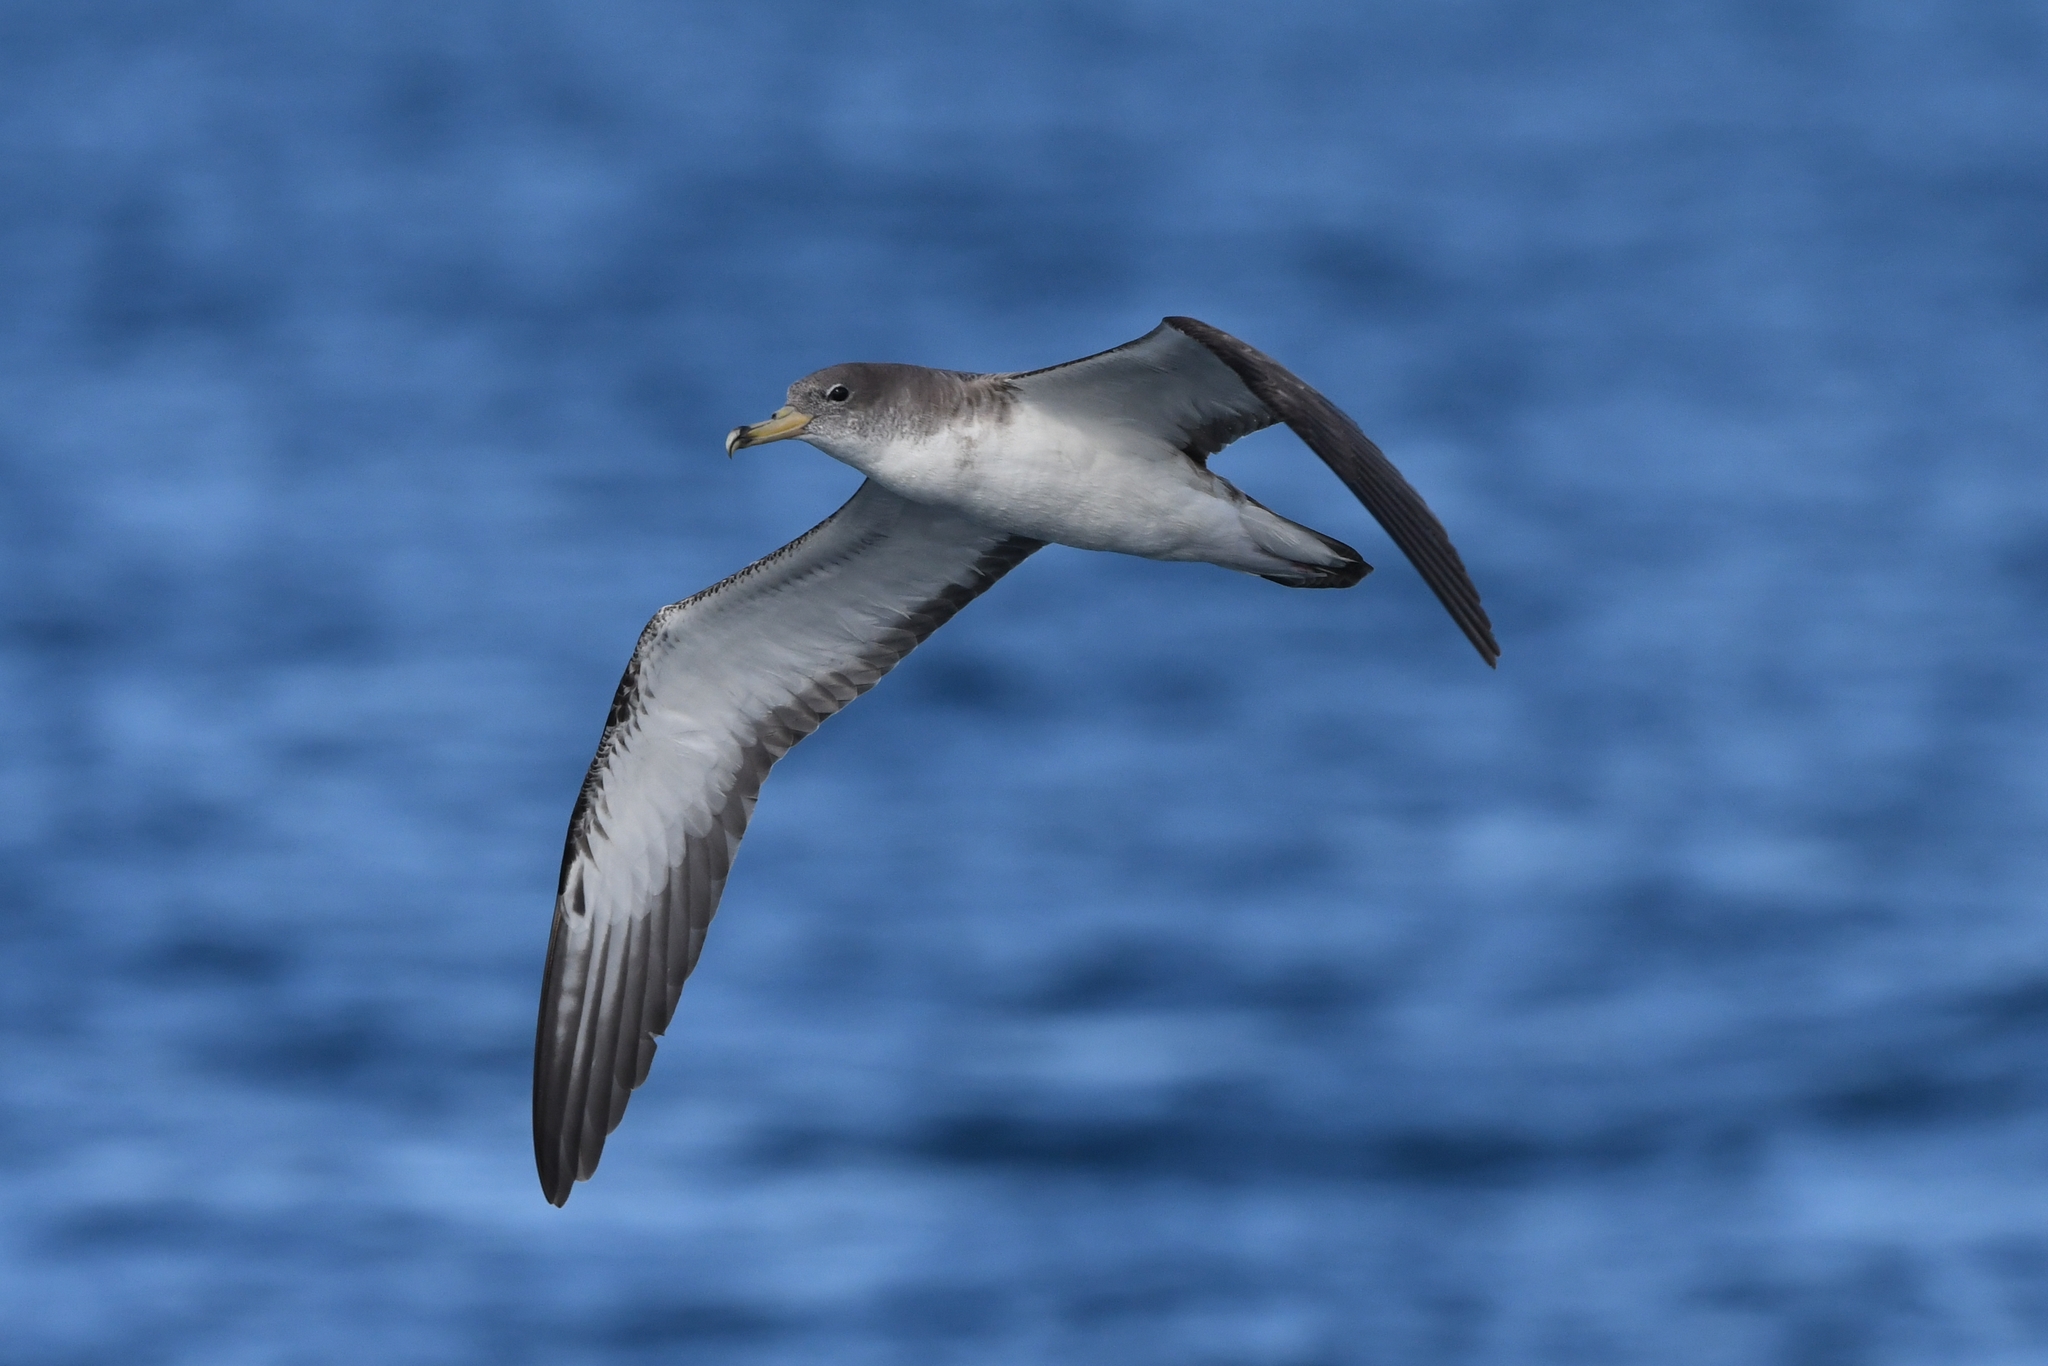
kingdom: Animalia
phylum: Chordata
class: Aves
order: Procellariiformes
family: Procellariidae
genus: Calonectris
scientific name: Calonectris diomedea
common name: Cory's shearwater
